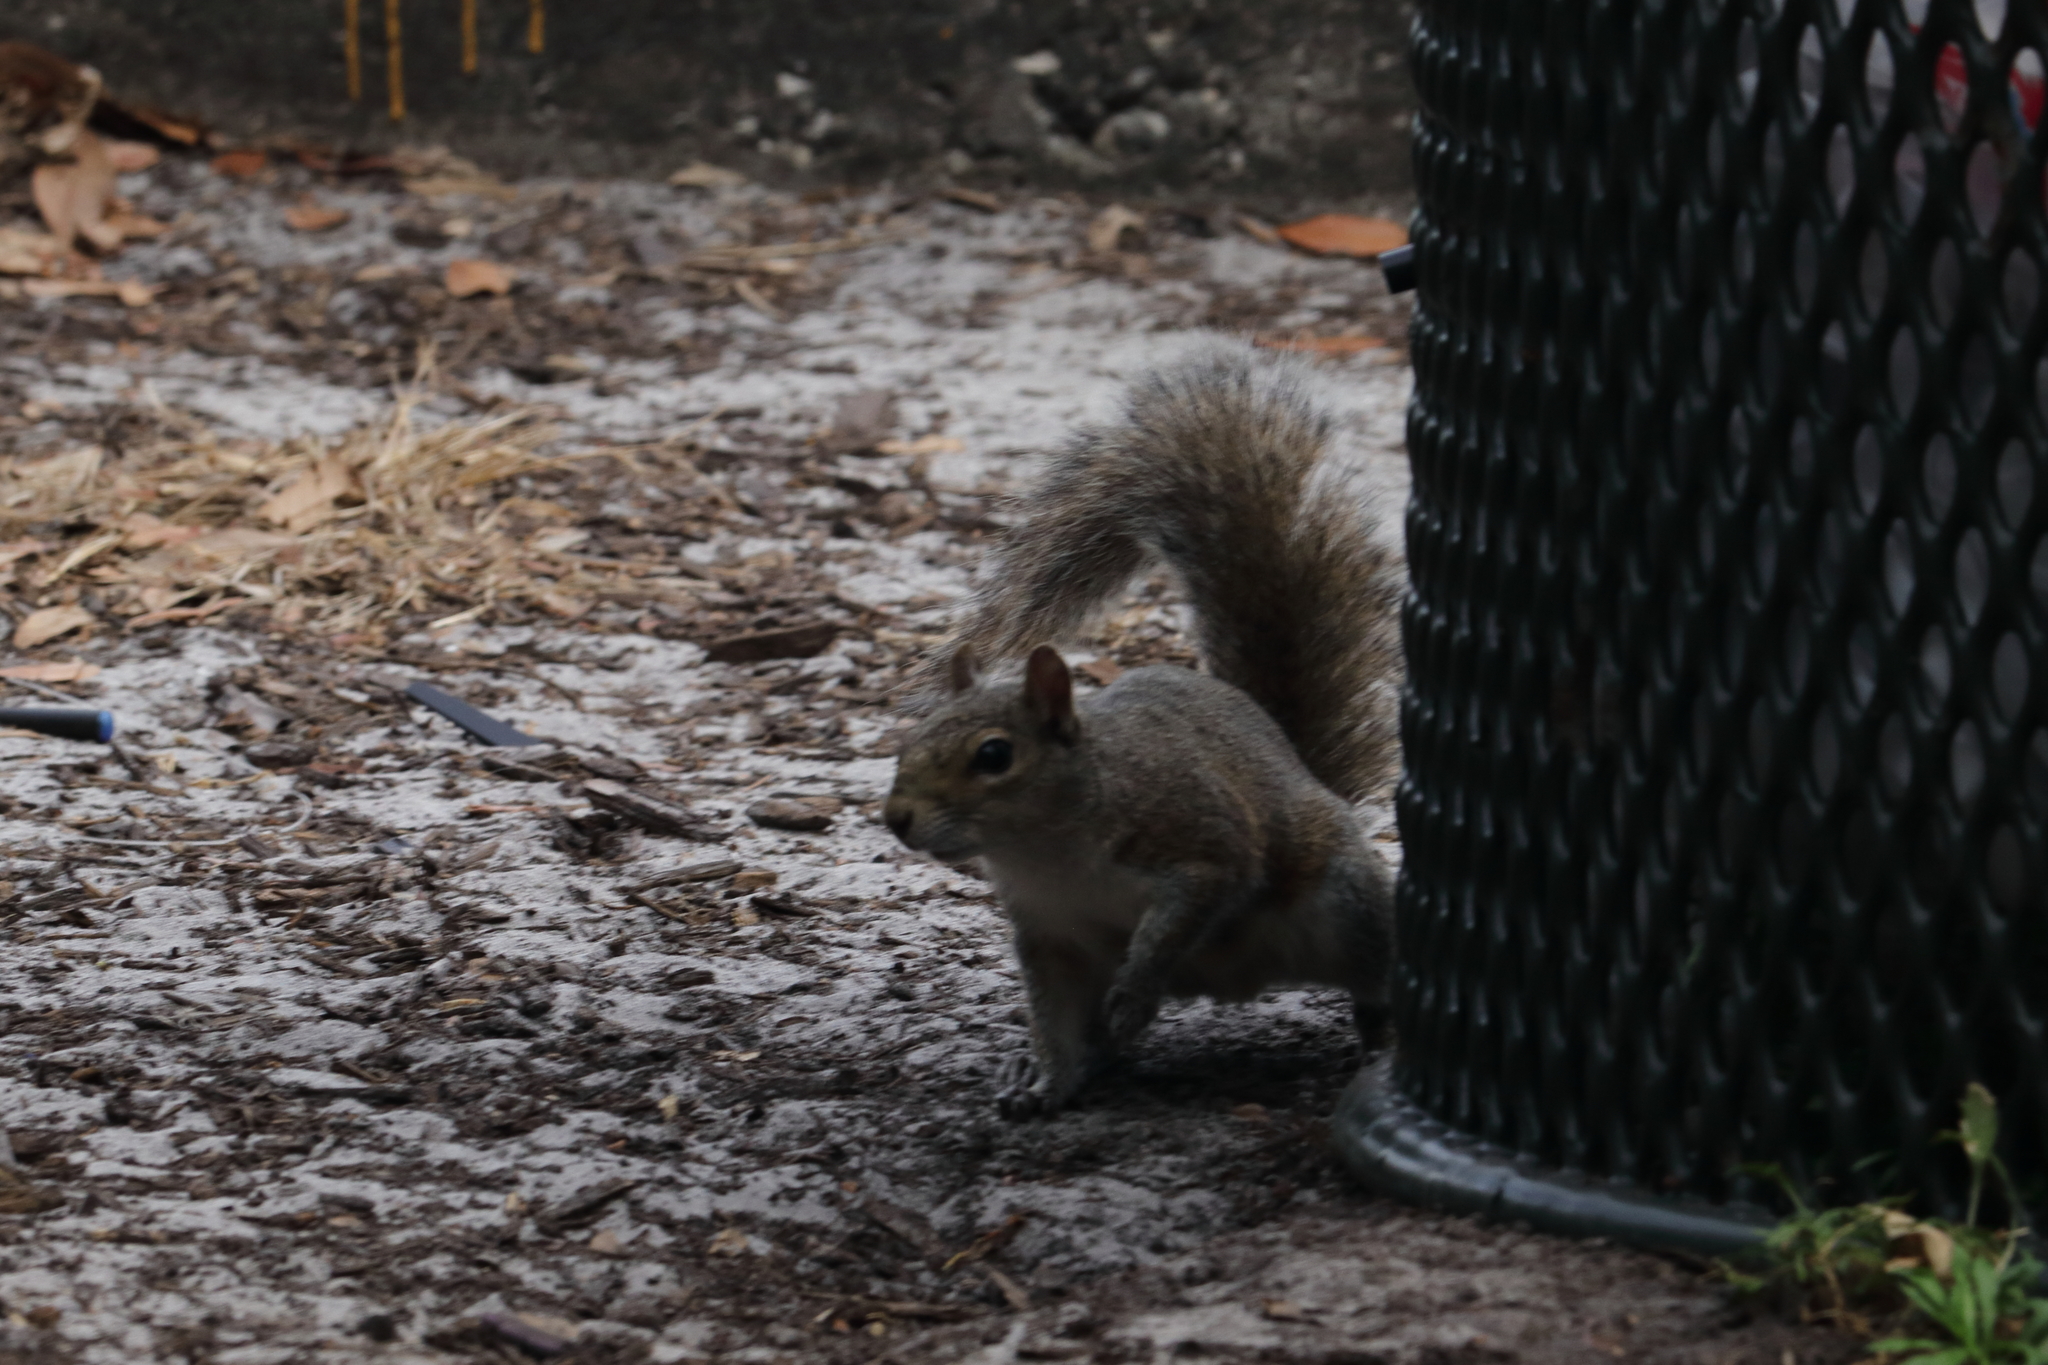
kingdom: Animalia
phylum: Chordata
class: Mammalia
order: Rodentia
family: Sciuridae
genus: Sciurus
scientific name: Sciurus carolinensis
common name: Eastern gray squirrel
